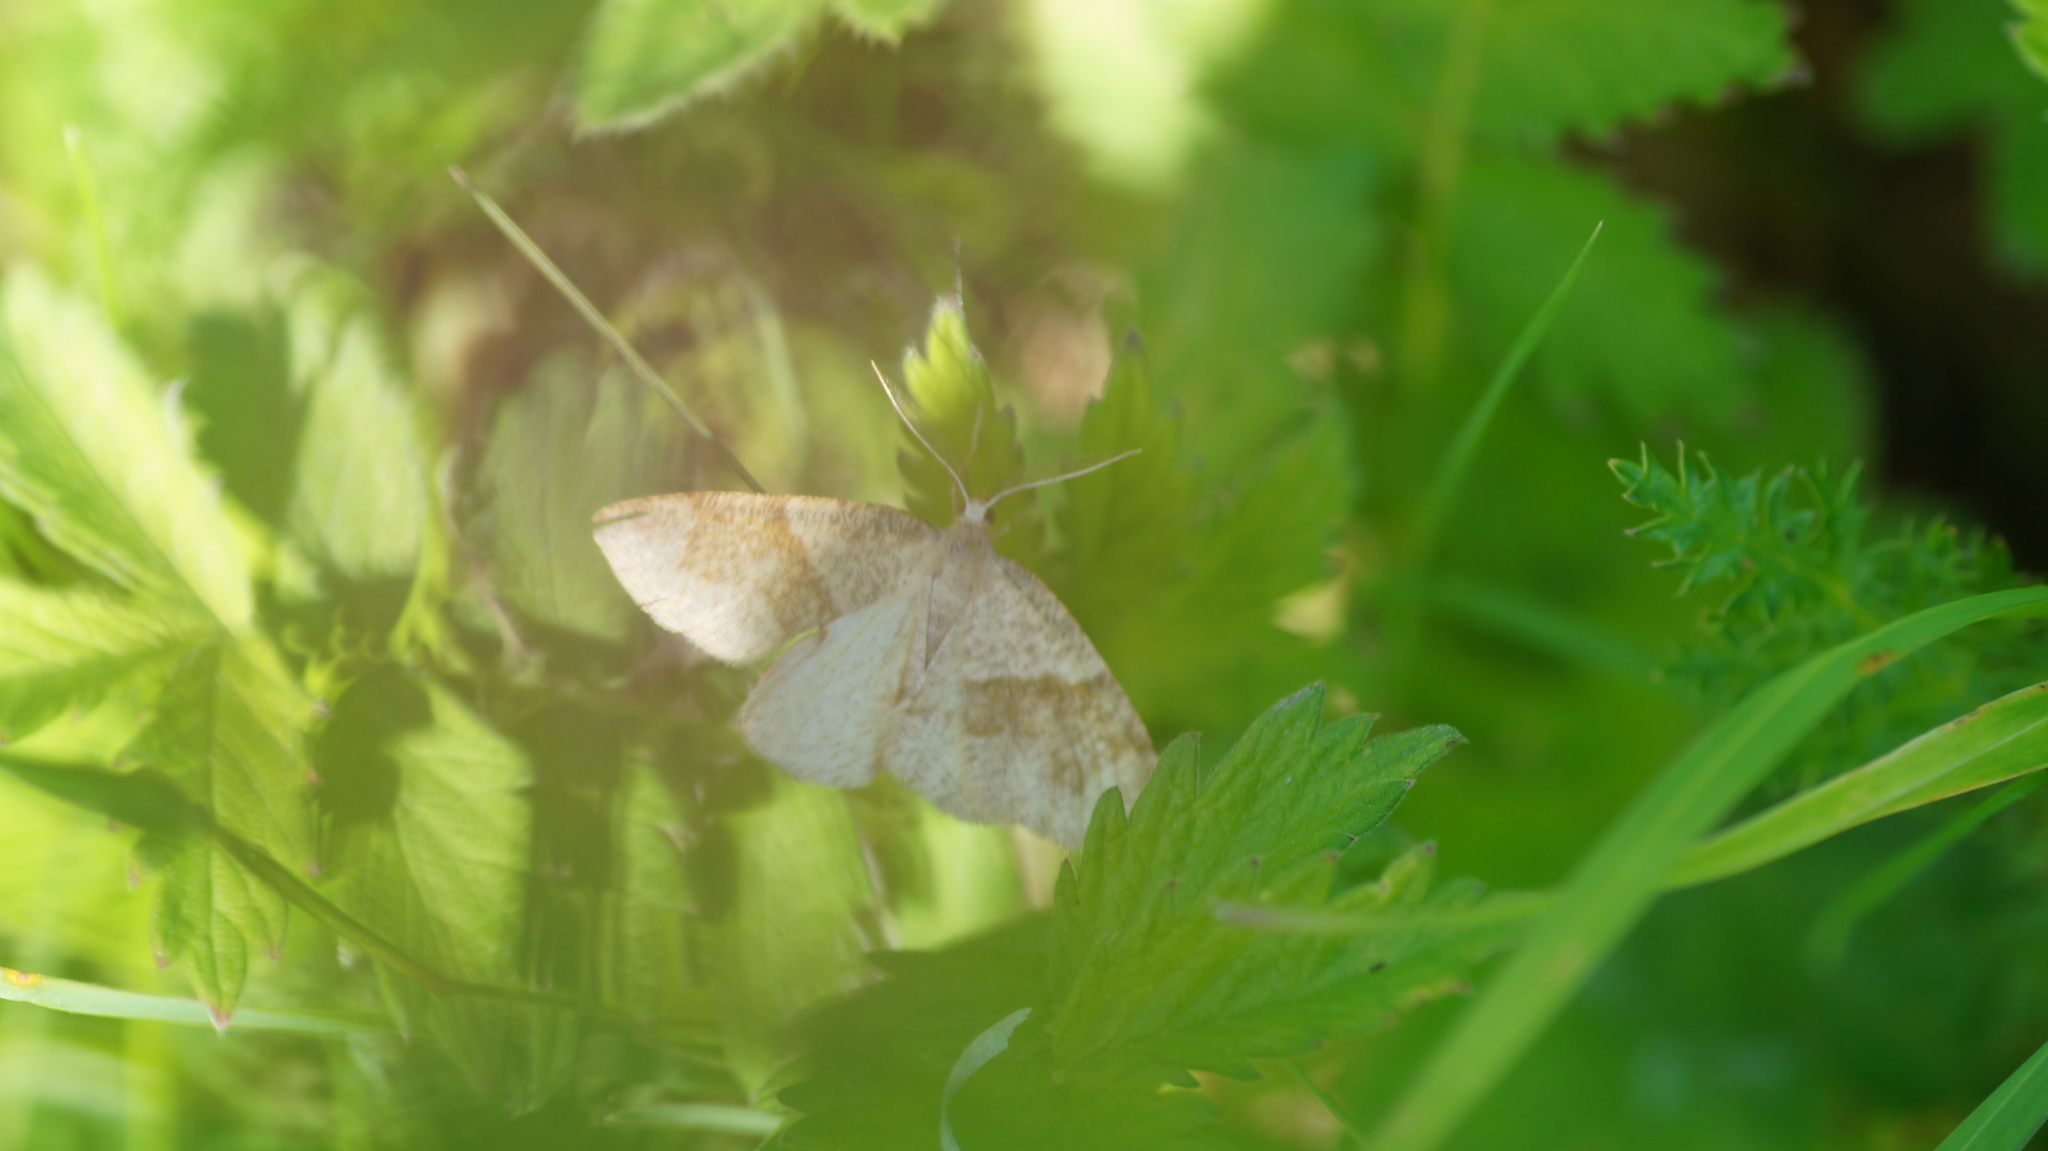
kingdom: Animalia
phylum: Arthropoda
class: Insecta
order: Lepidoptera
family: Geometridae
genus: Plagodis
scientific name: Plagodis pulveraria
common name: Barred umber
